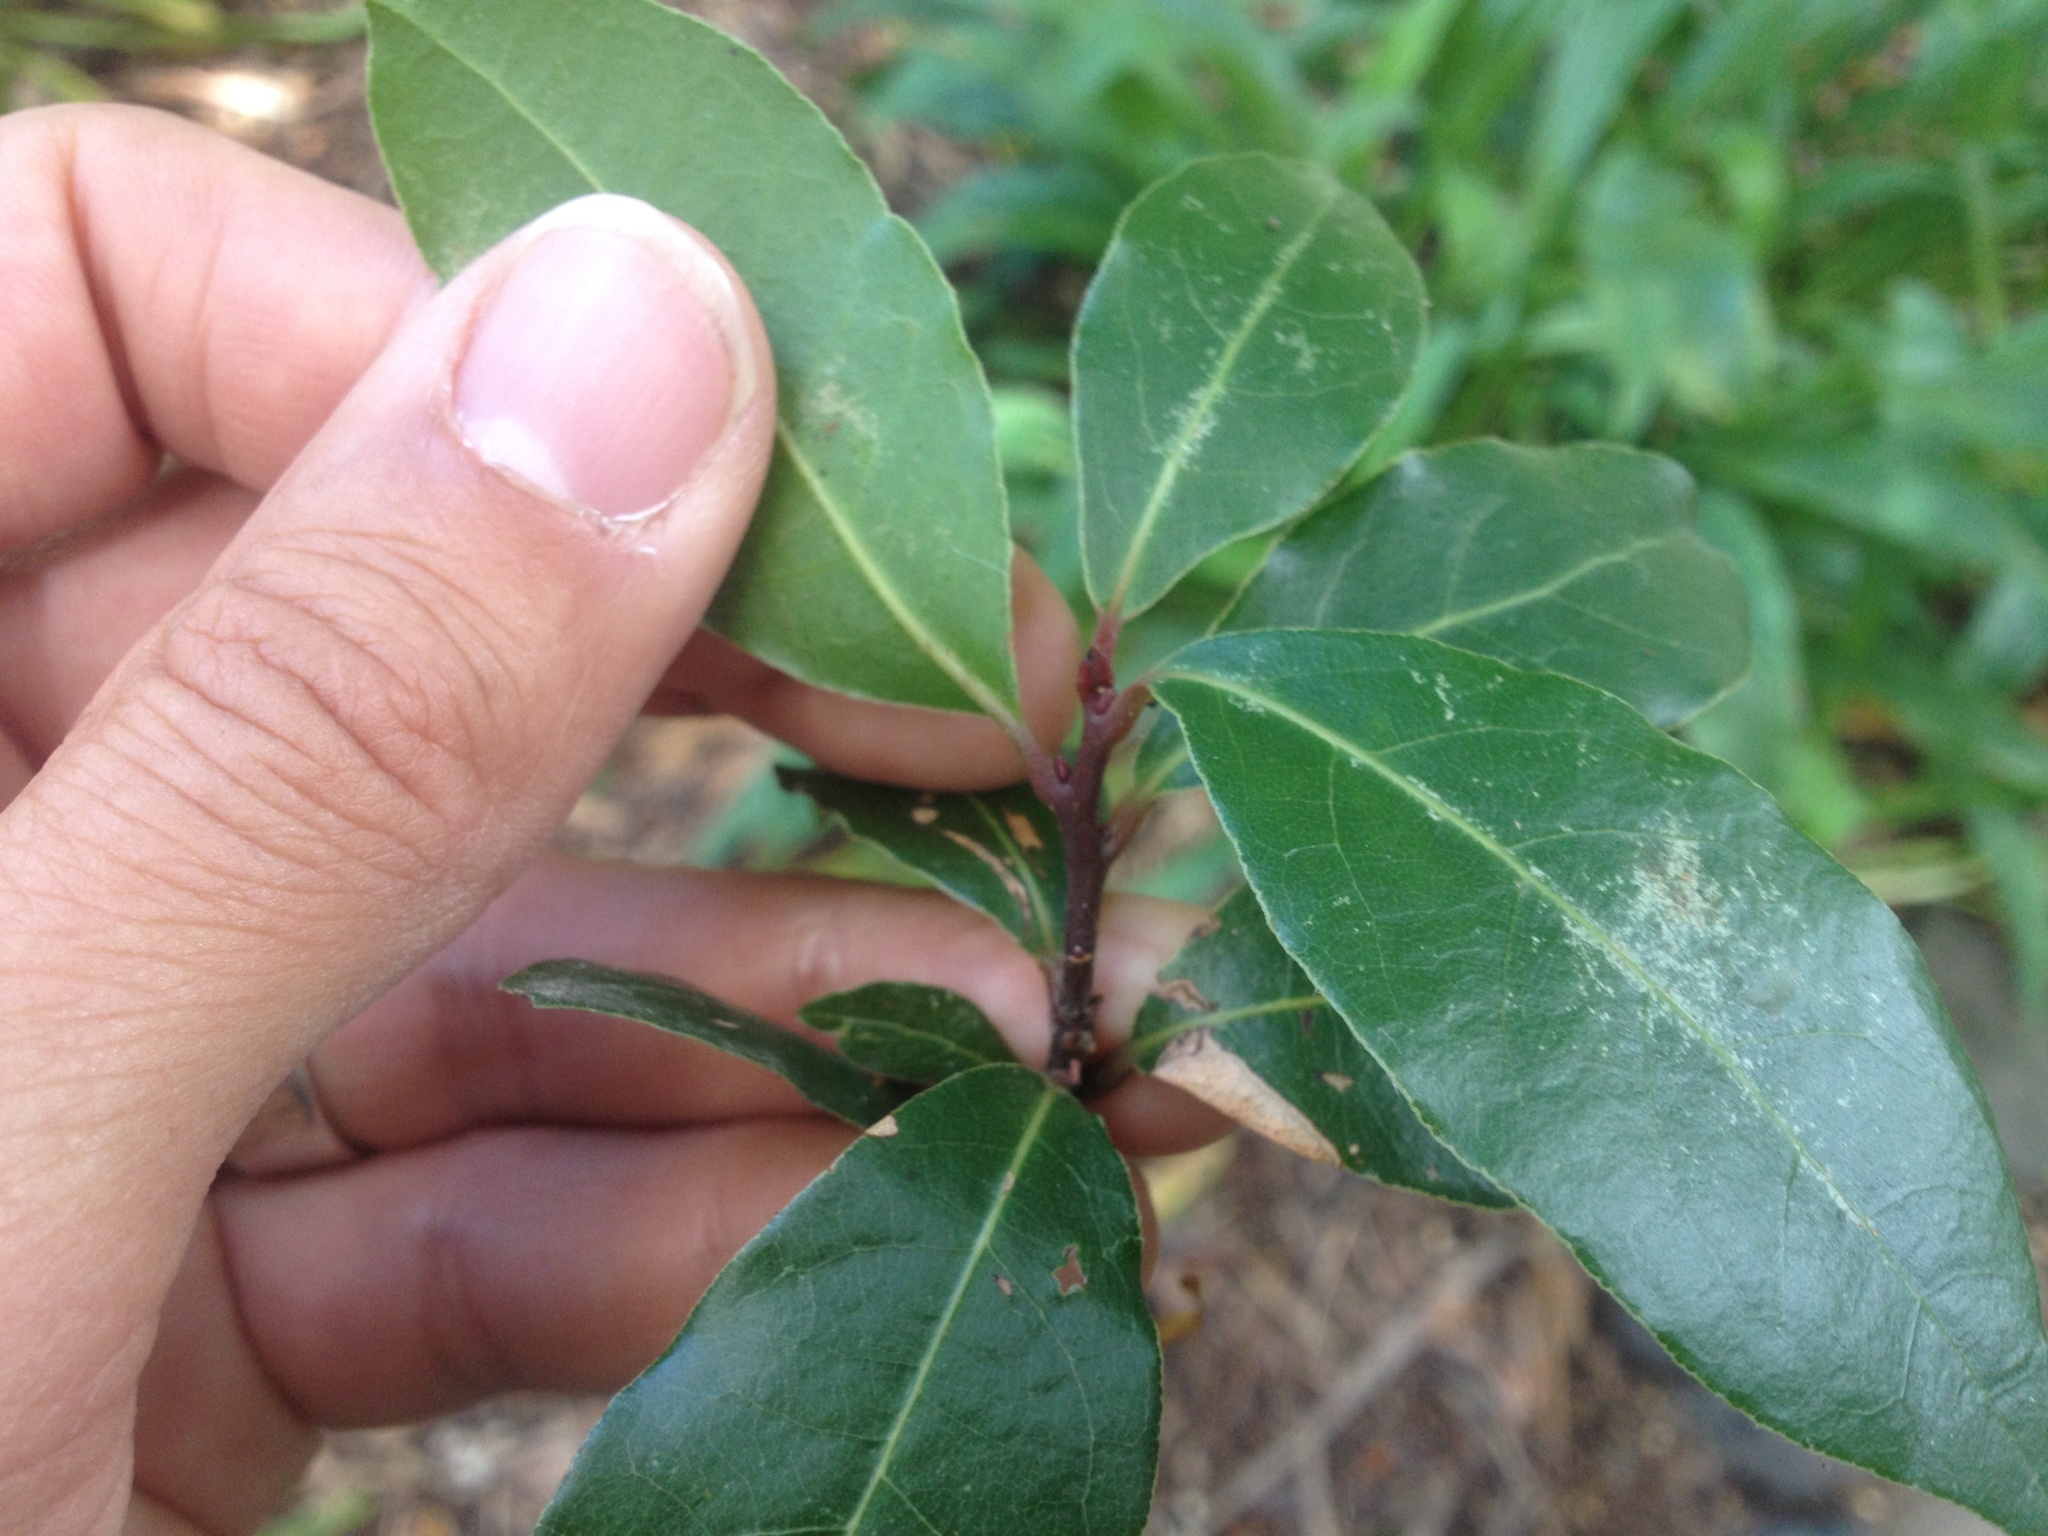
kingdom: Plantae
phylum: Tracheophyta
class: Magnoliopsida
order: Laurales
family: Lauraceae
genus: Laurus
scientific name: Laurus nobilis
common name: Bay
